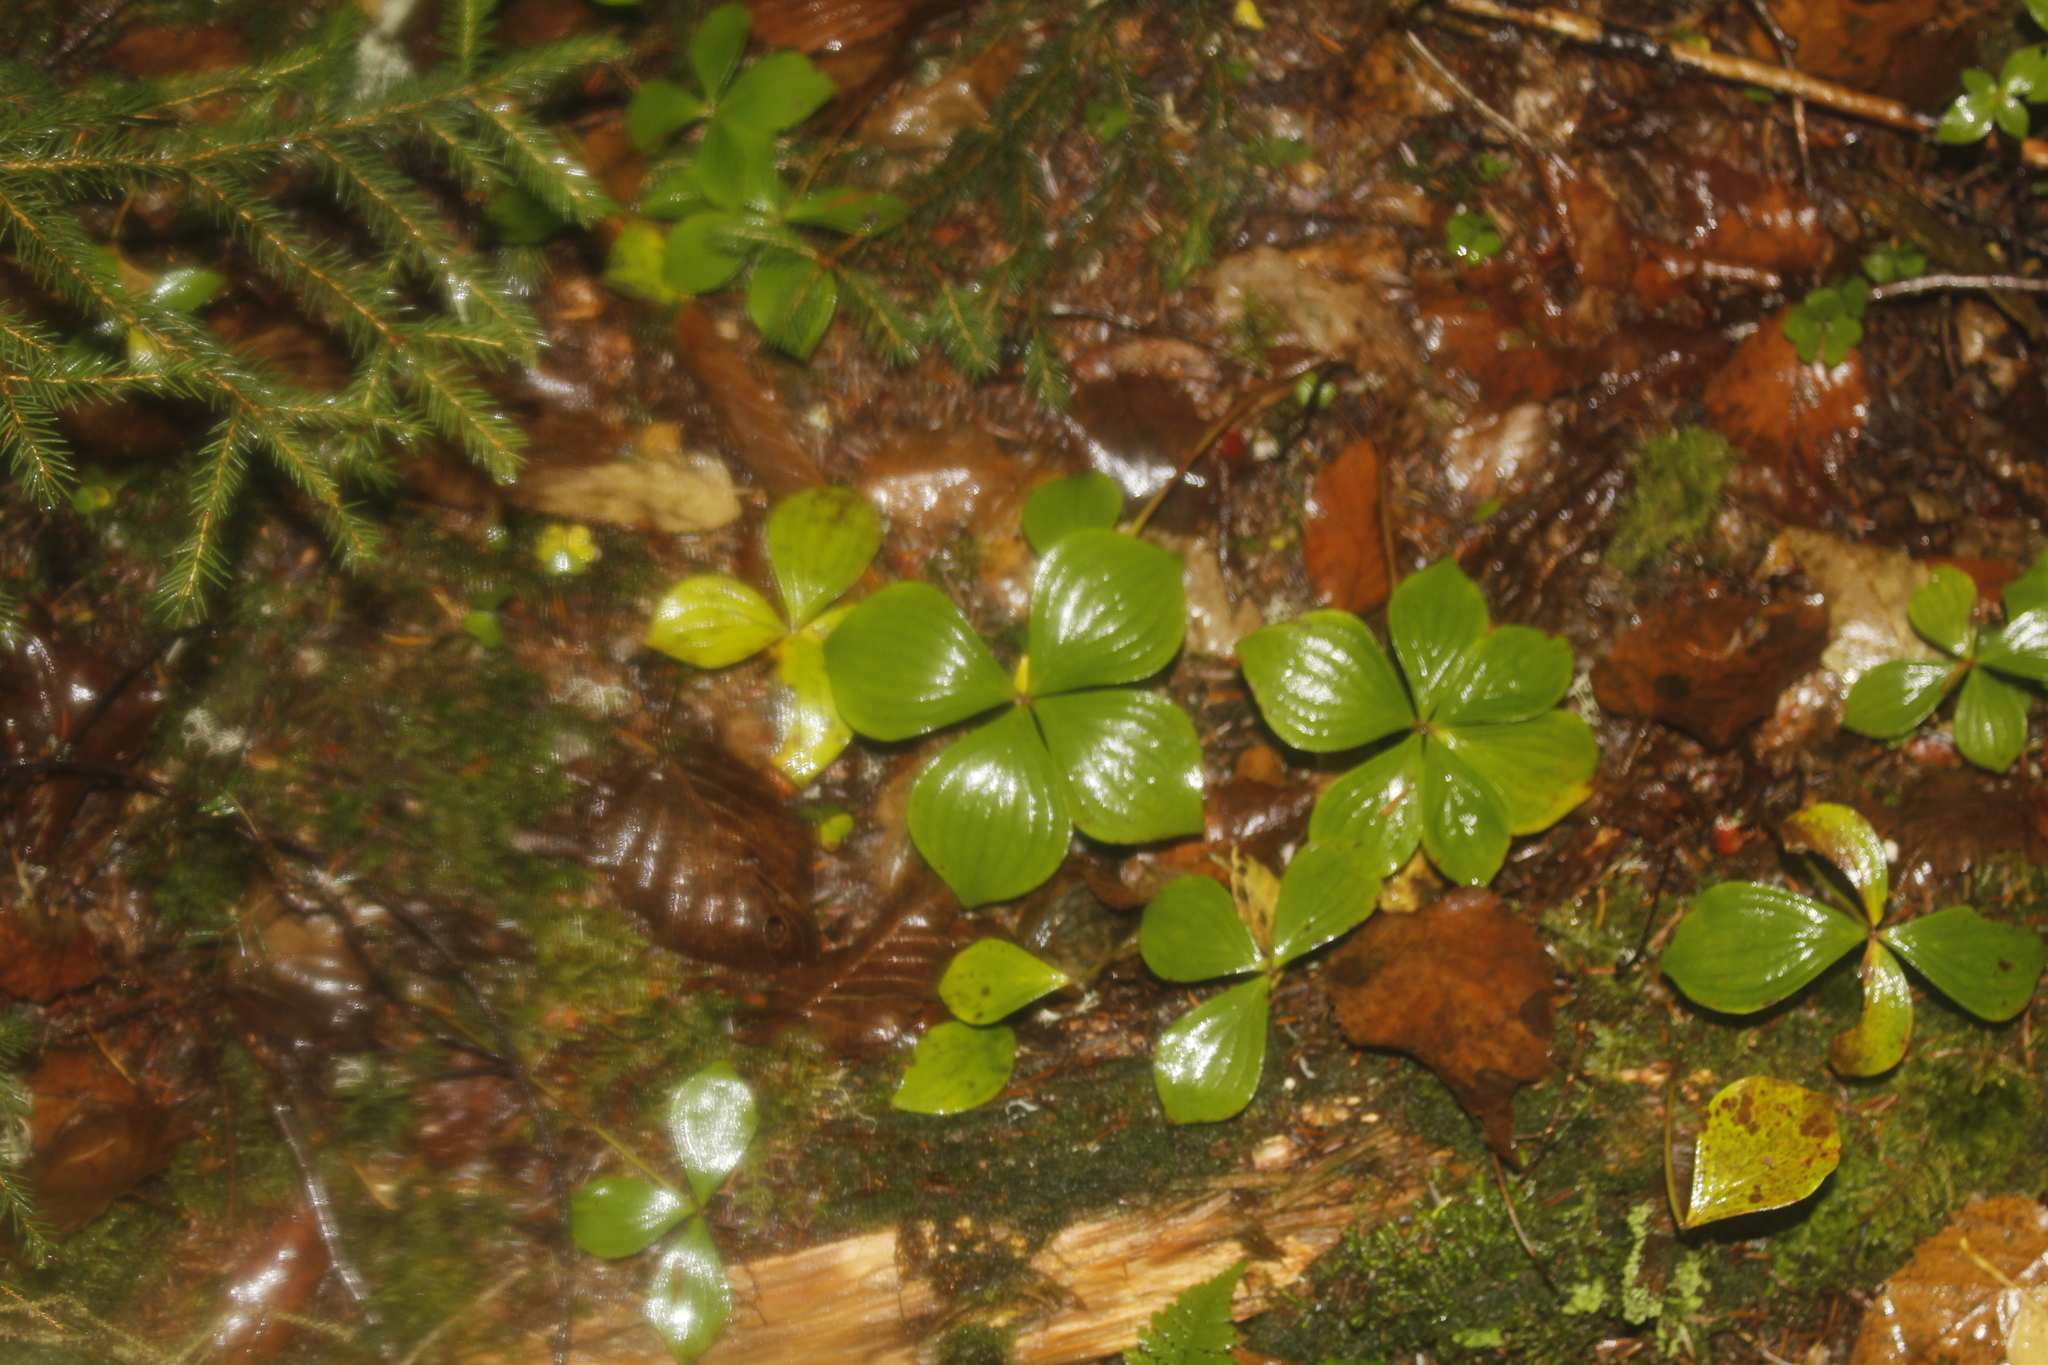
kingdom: Plantae
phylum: Tracheophyta
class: Magnoliopsida
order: Cornales
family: Cornaceae
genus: Cornus
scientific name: Cornus canadensis
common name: Creeping dogwood
